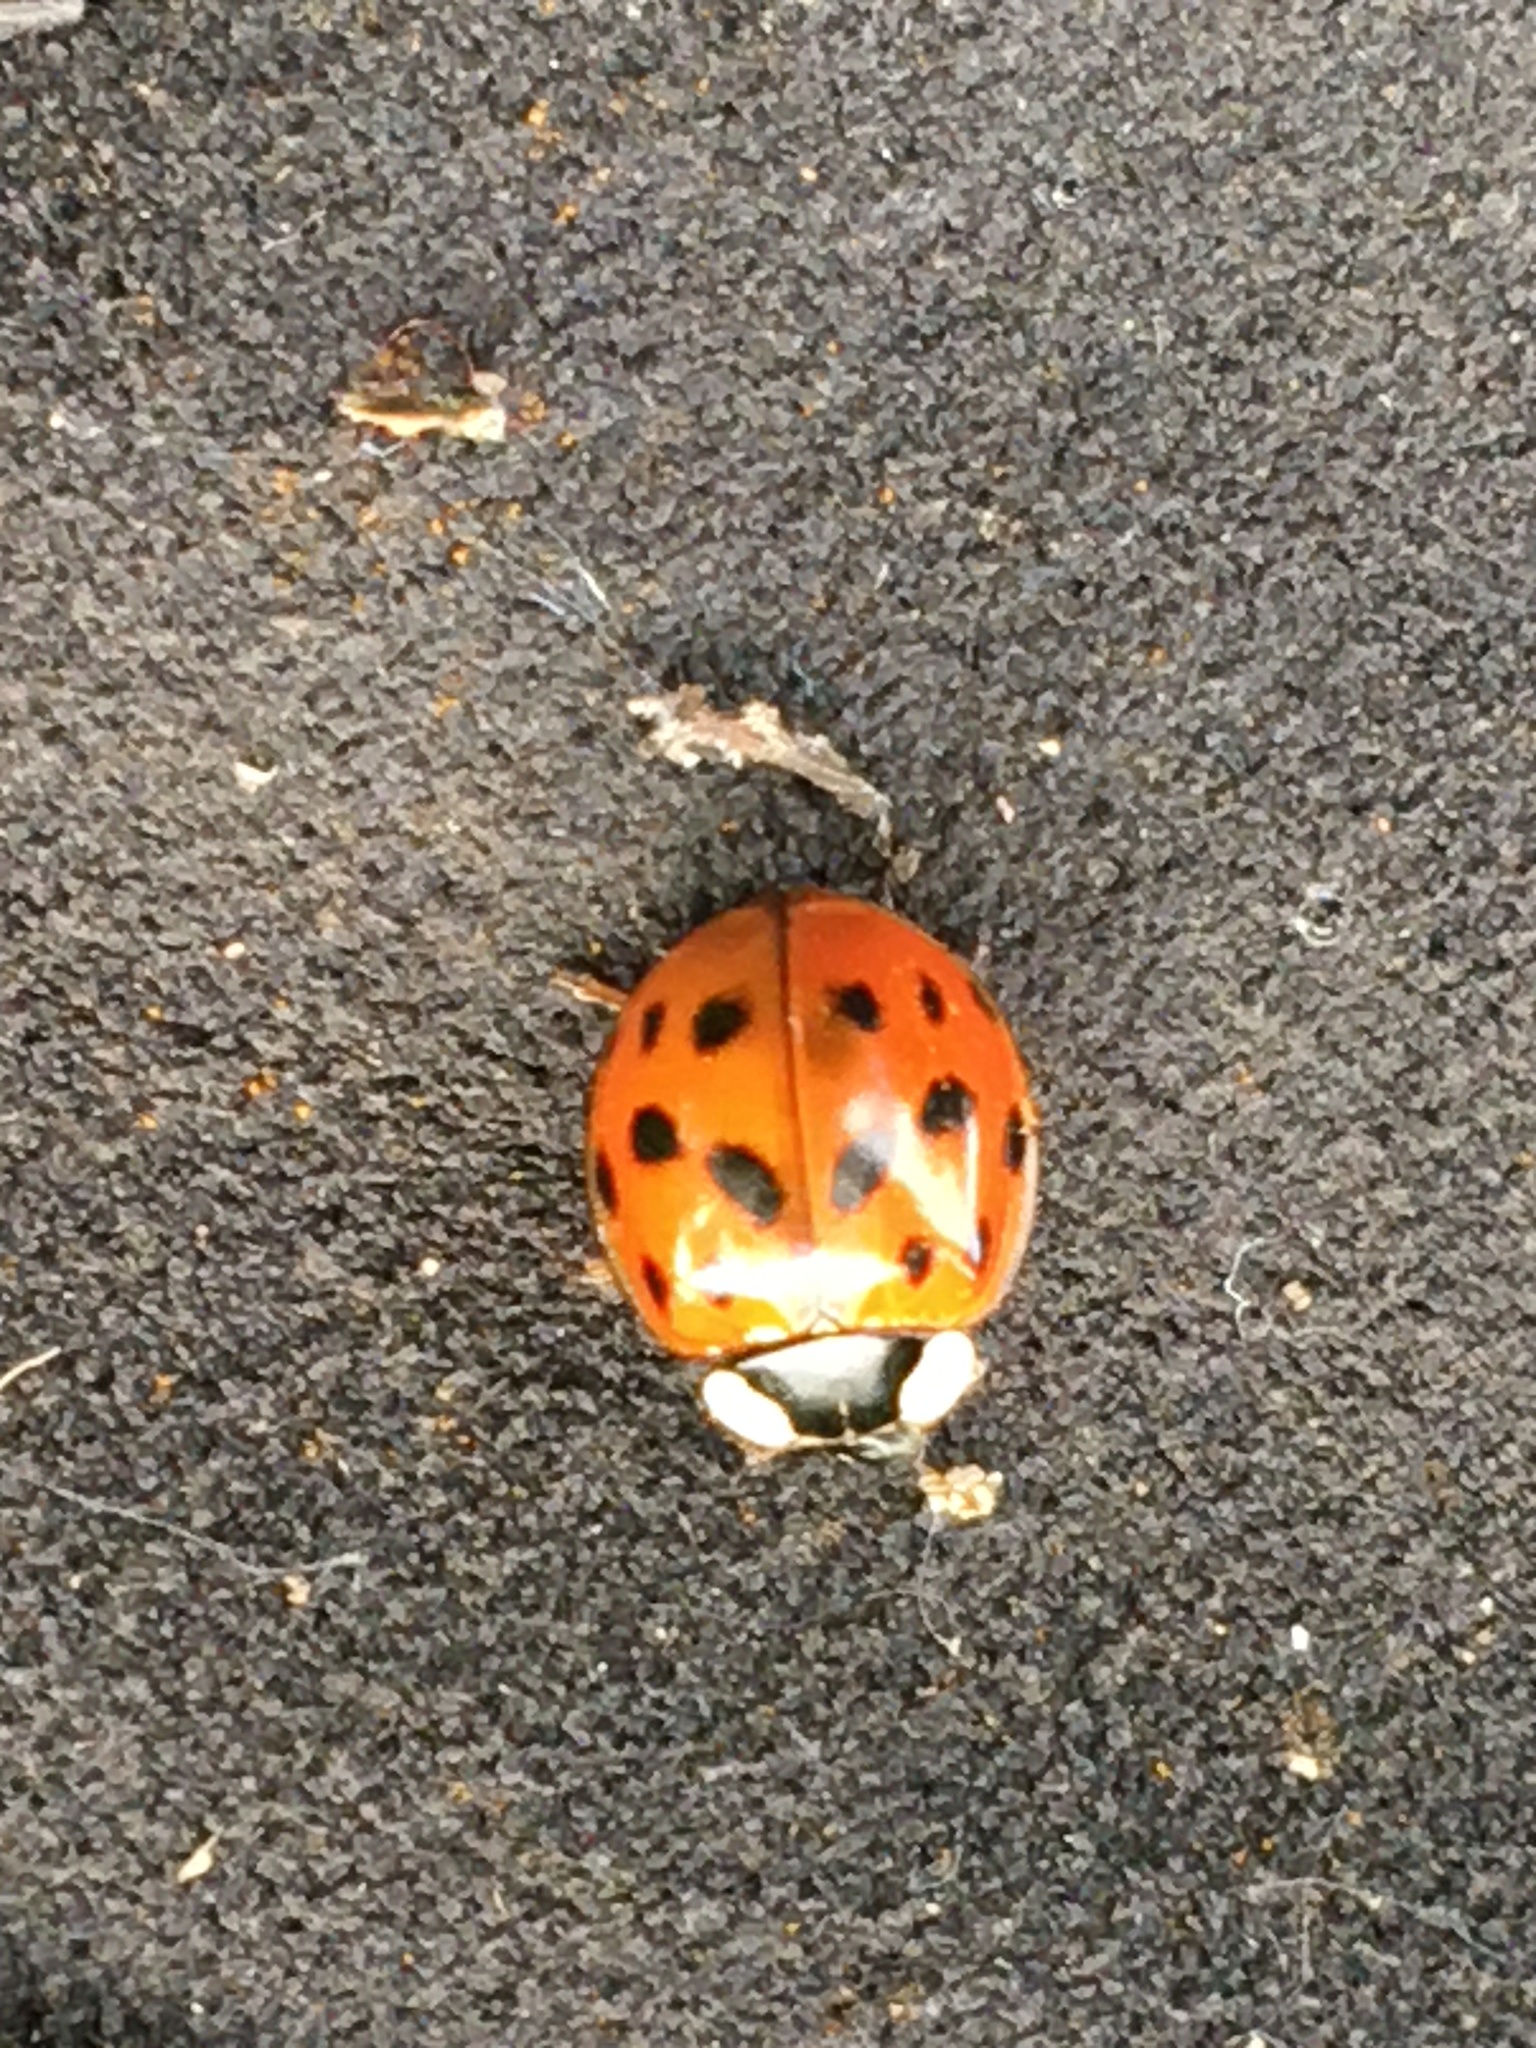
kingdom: Animalia
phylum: Arthropoda
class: Insecta
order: Coleoptera
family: Coccinellidae
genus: Harmonia
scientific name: Harmonia axyridis
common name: Harlequin ladybird
